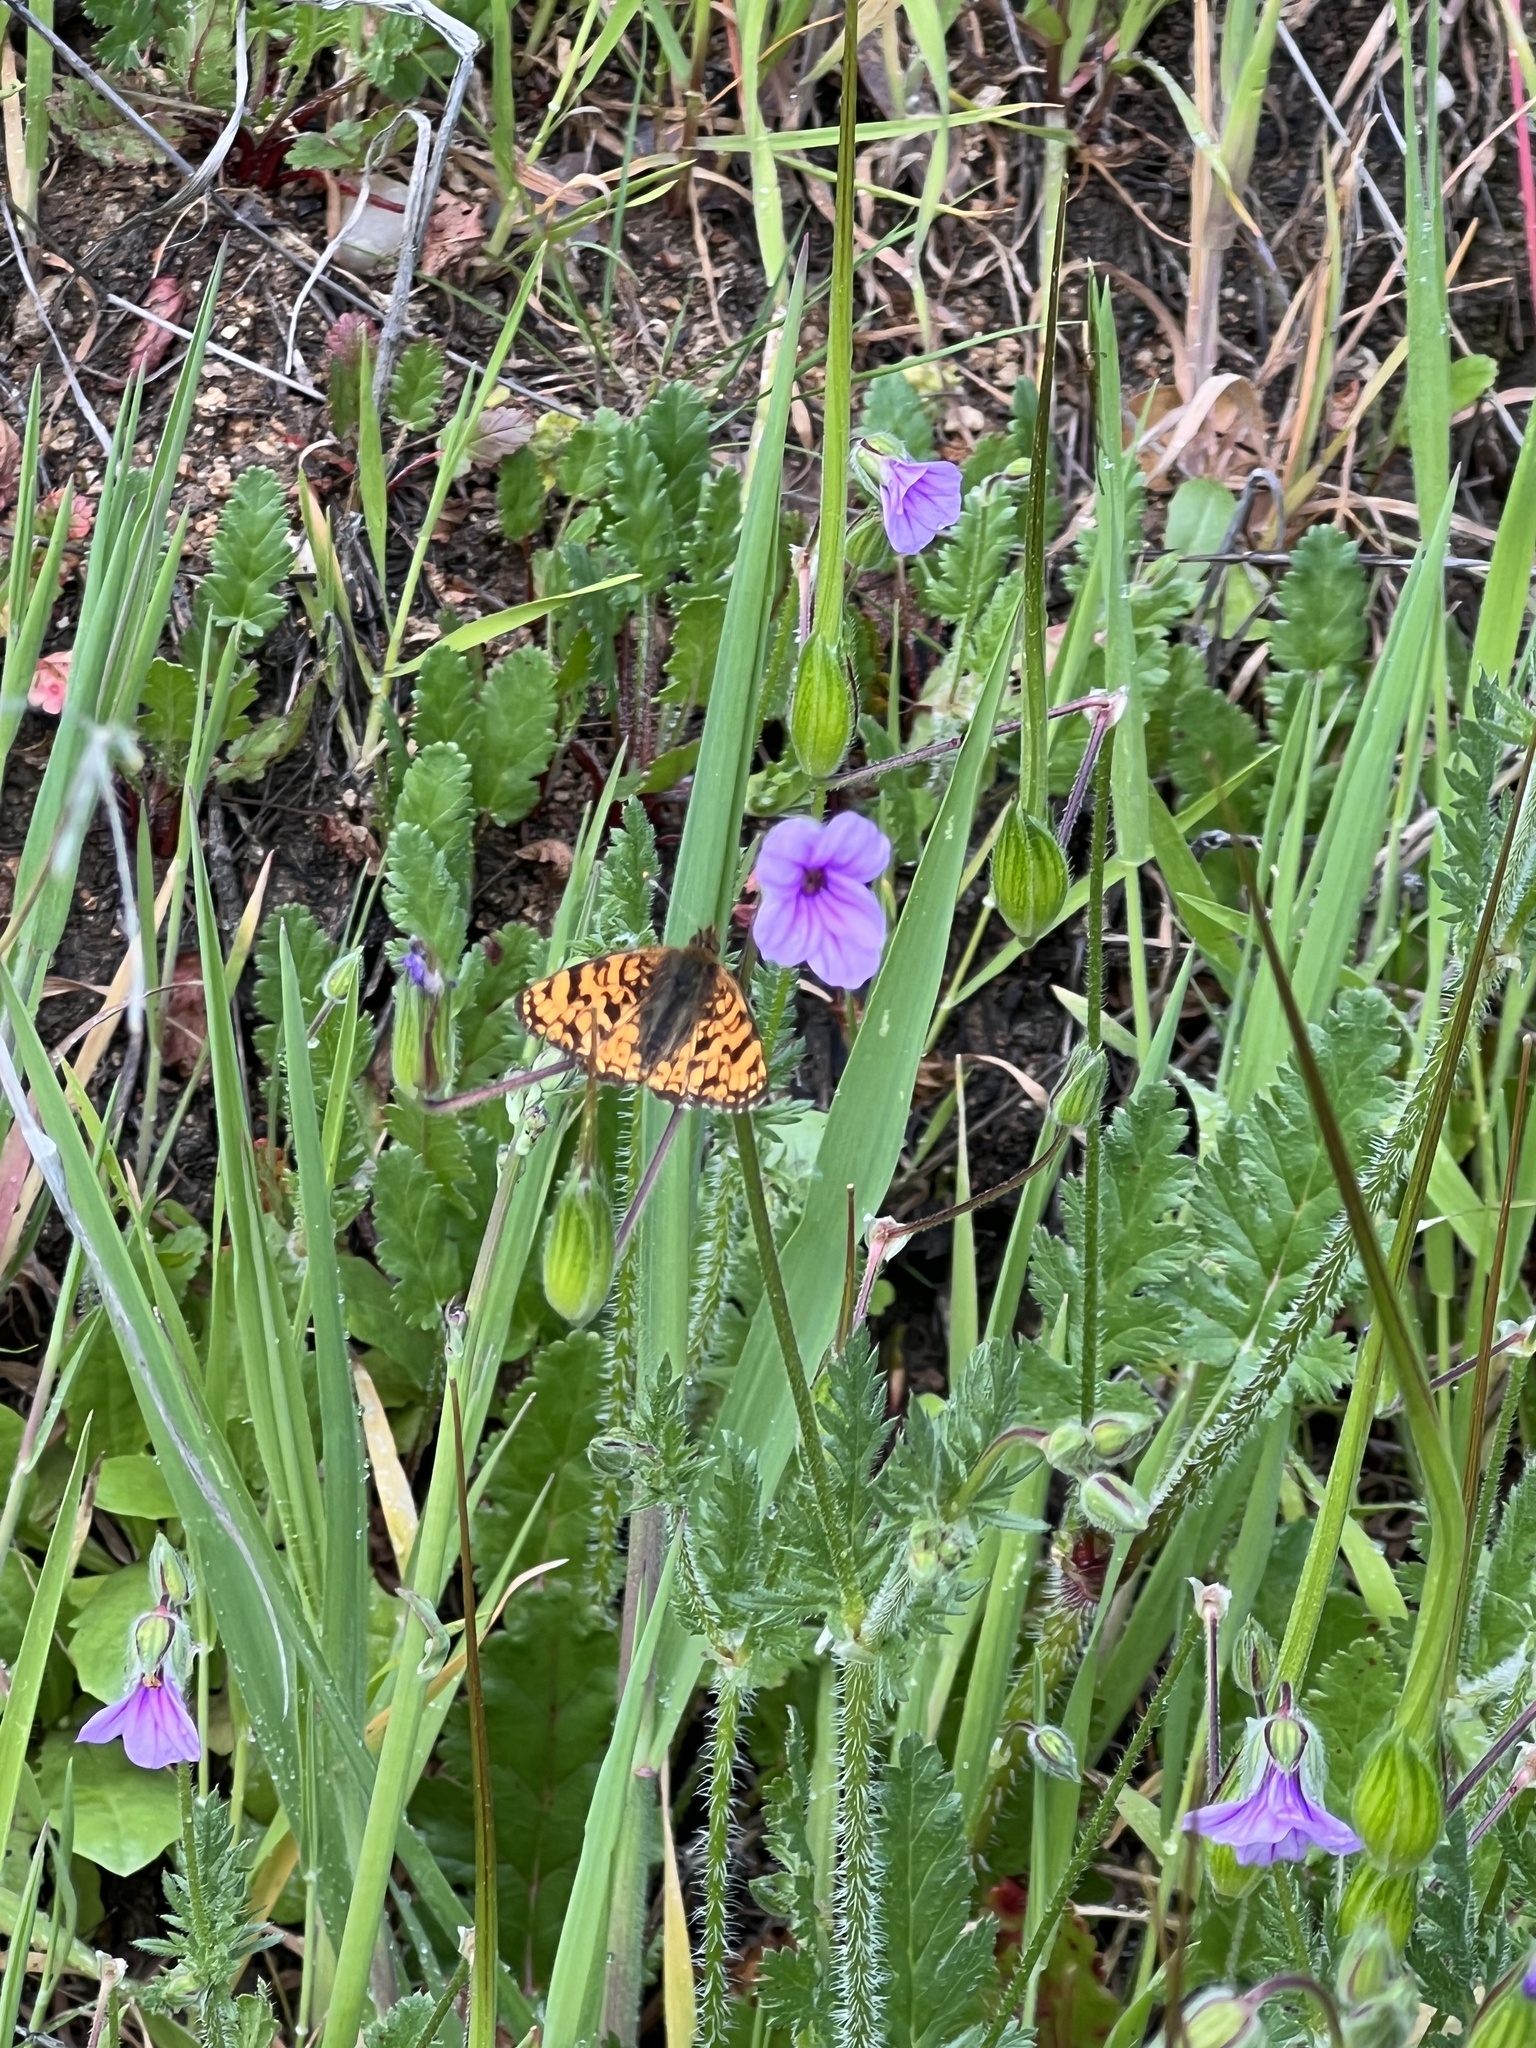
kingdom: Animalia
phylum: Arthropoda
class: Insecta
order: Lepidoptera
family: Nymphalidae
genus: Eresia
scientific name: Eresia aveyrona
